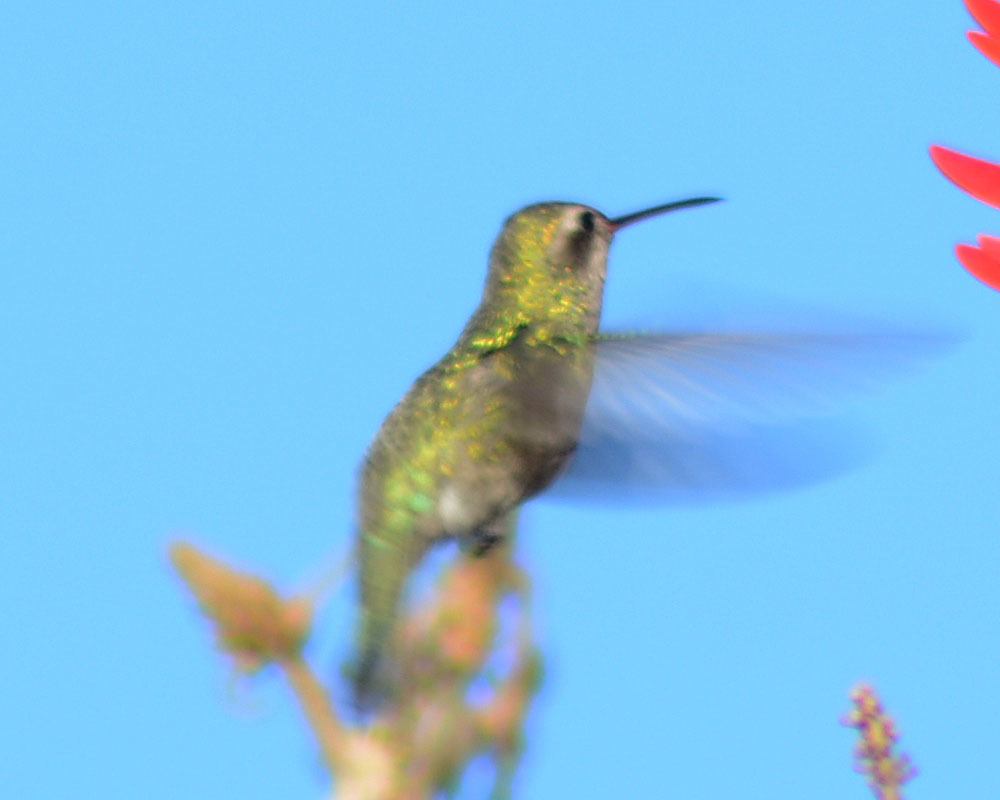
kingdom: Animalia
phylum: Chordata
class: Aves
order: Apodiformes
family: Trochilidae
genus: Cynanthus
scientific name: Cynanthus latirostris
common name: Broad-billed hummingbird
